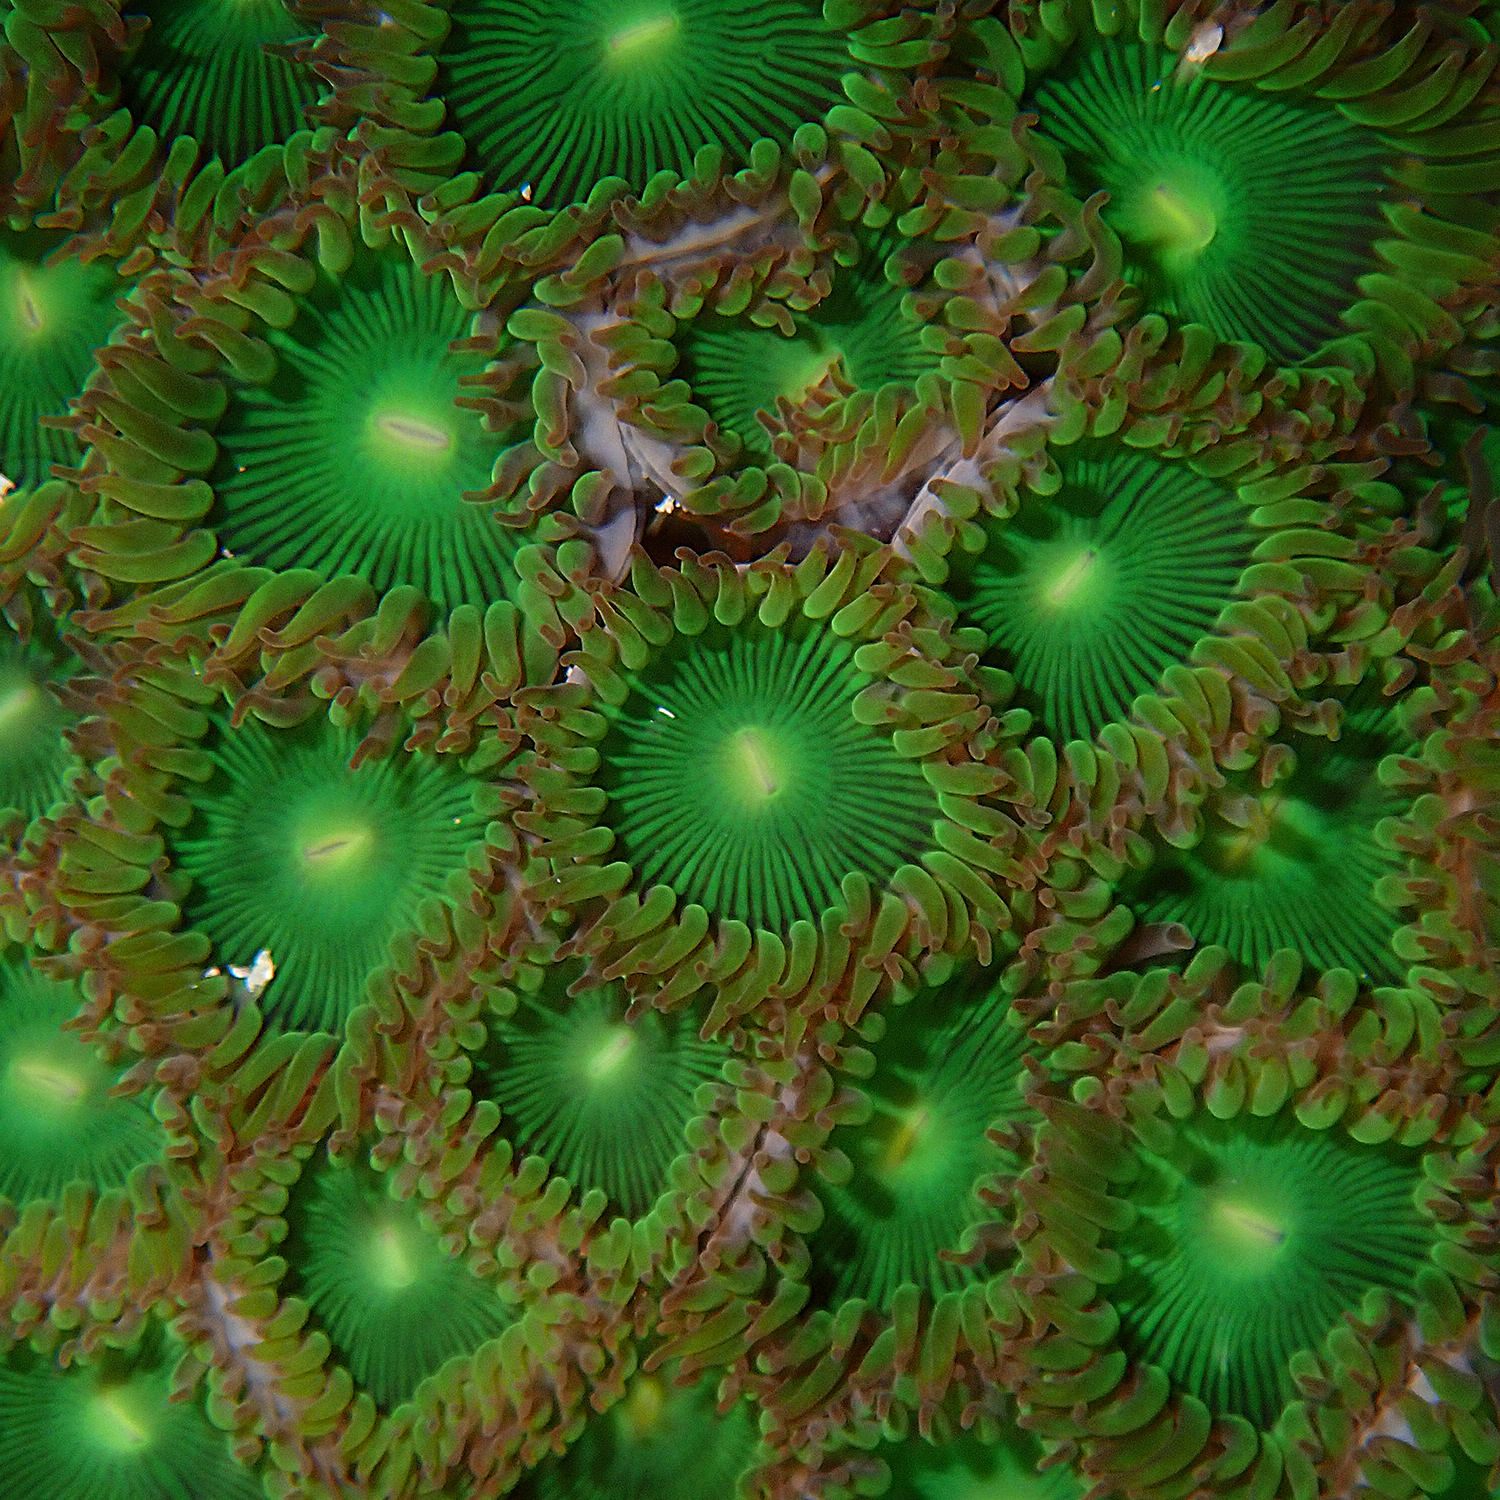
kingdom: Animalia
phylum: Cnidaria
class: Anthozoa
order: Zoantharia
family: Zoanthidae
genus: Zoanthus
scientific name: Zoanthus gigantus
